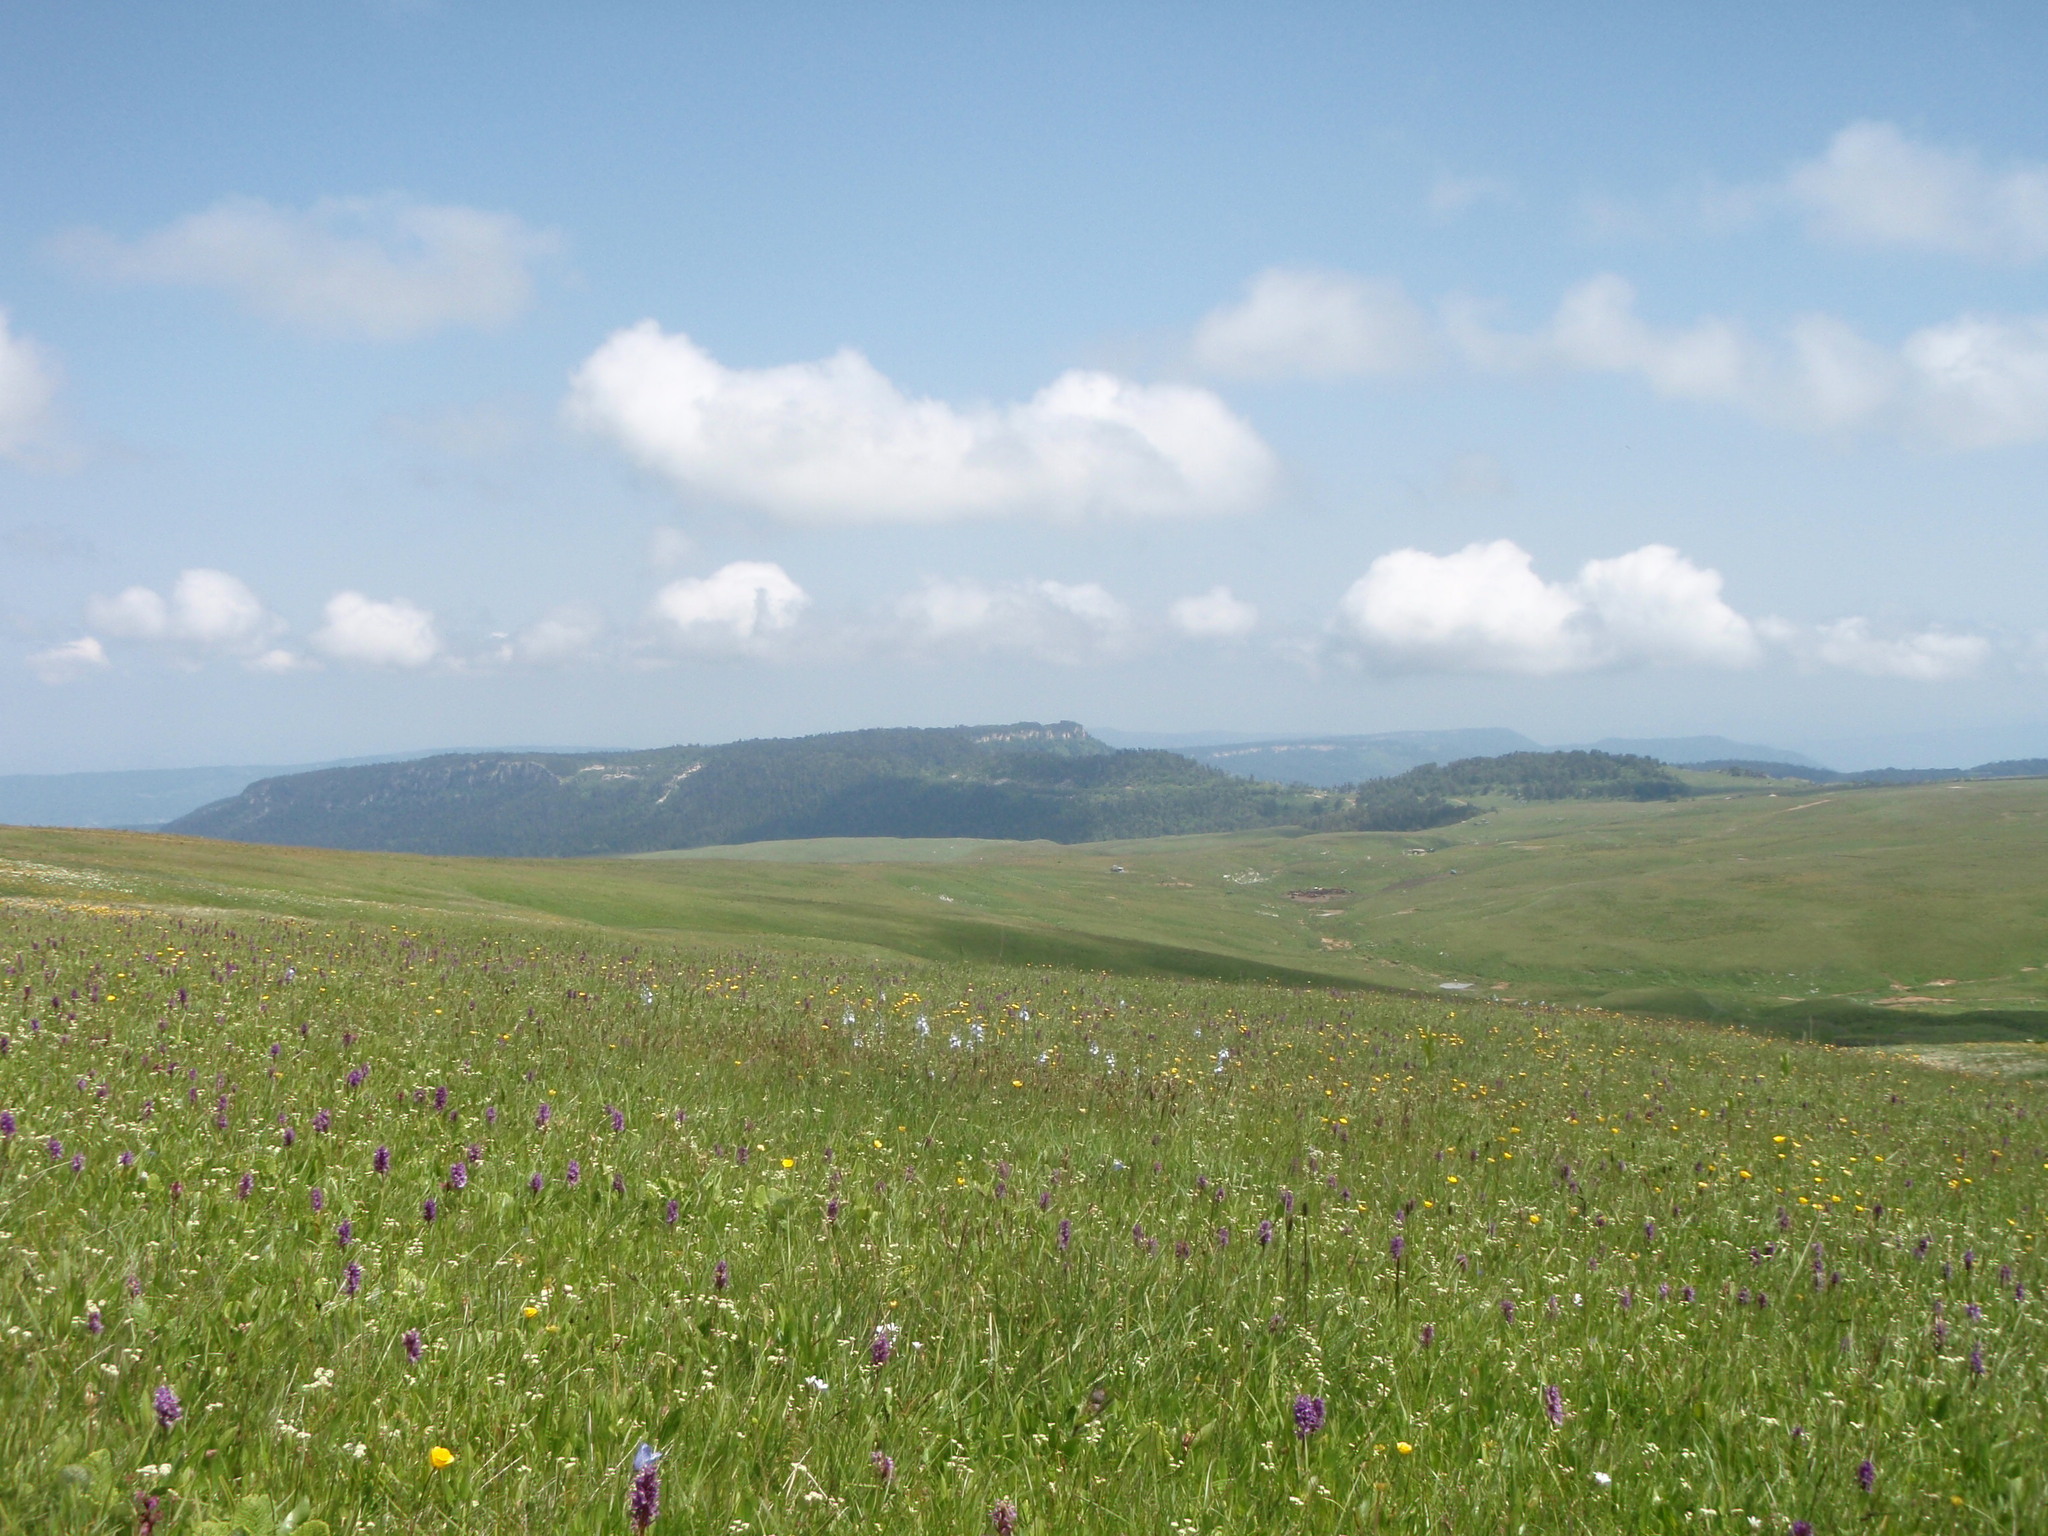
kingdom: Plantae
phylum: Tracheophyta
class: Liliopsida
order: Asparagales
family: Orchidaceae
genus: Dactylorhiza
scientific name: Dactylorhiza euxina
